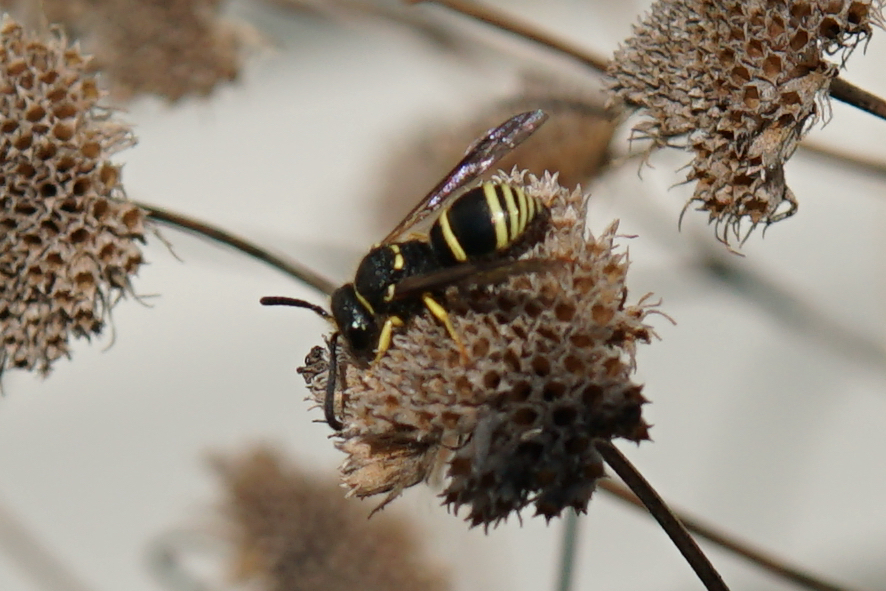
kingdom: Animalia
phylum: Arthropoda
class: Insecta
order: Hymenoptera
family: Vespidae
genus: Ancistrocerus
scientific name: Ancistrocerus
